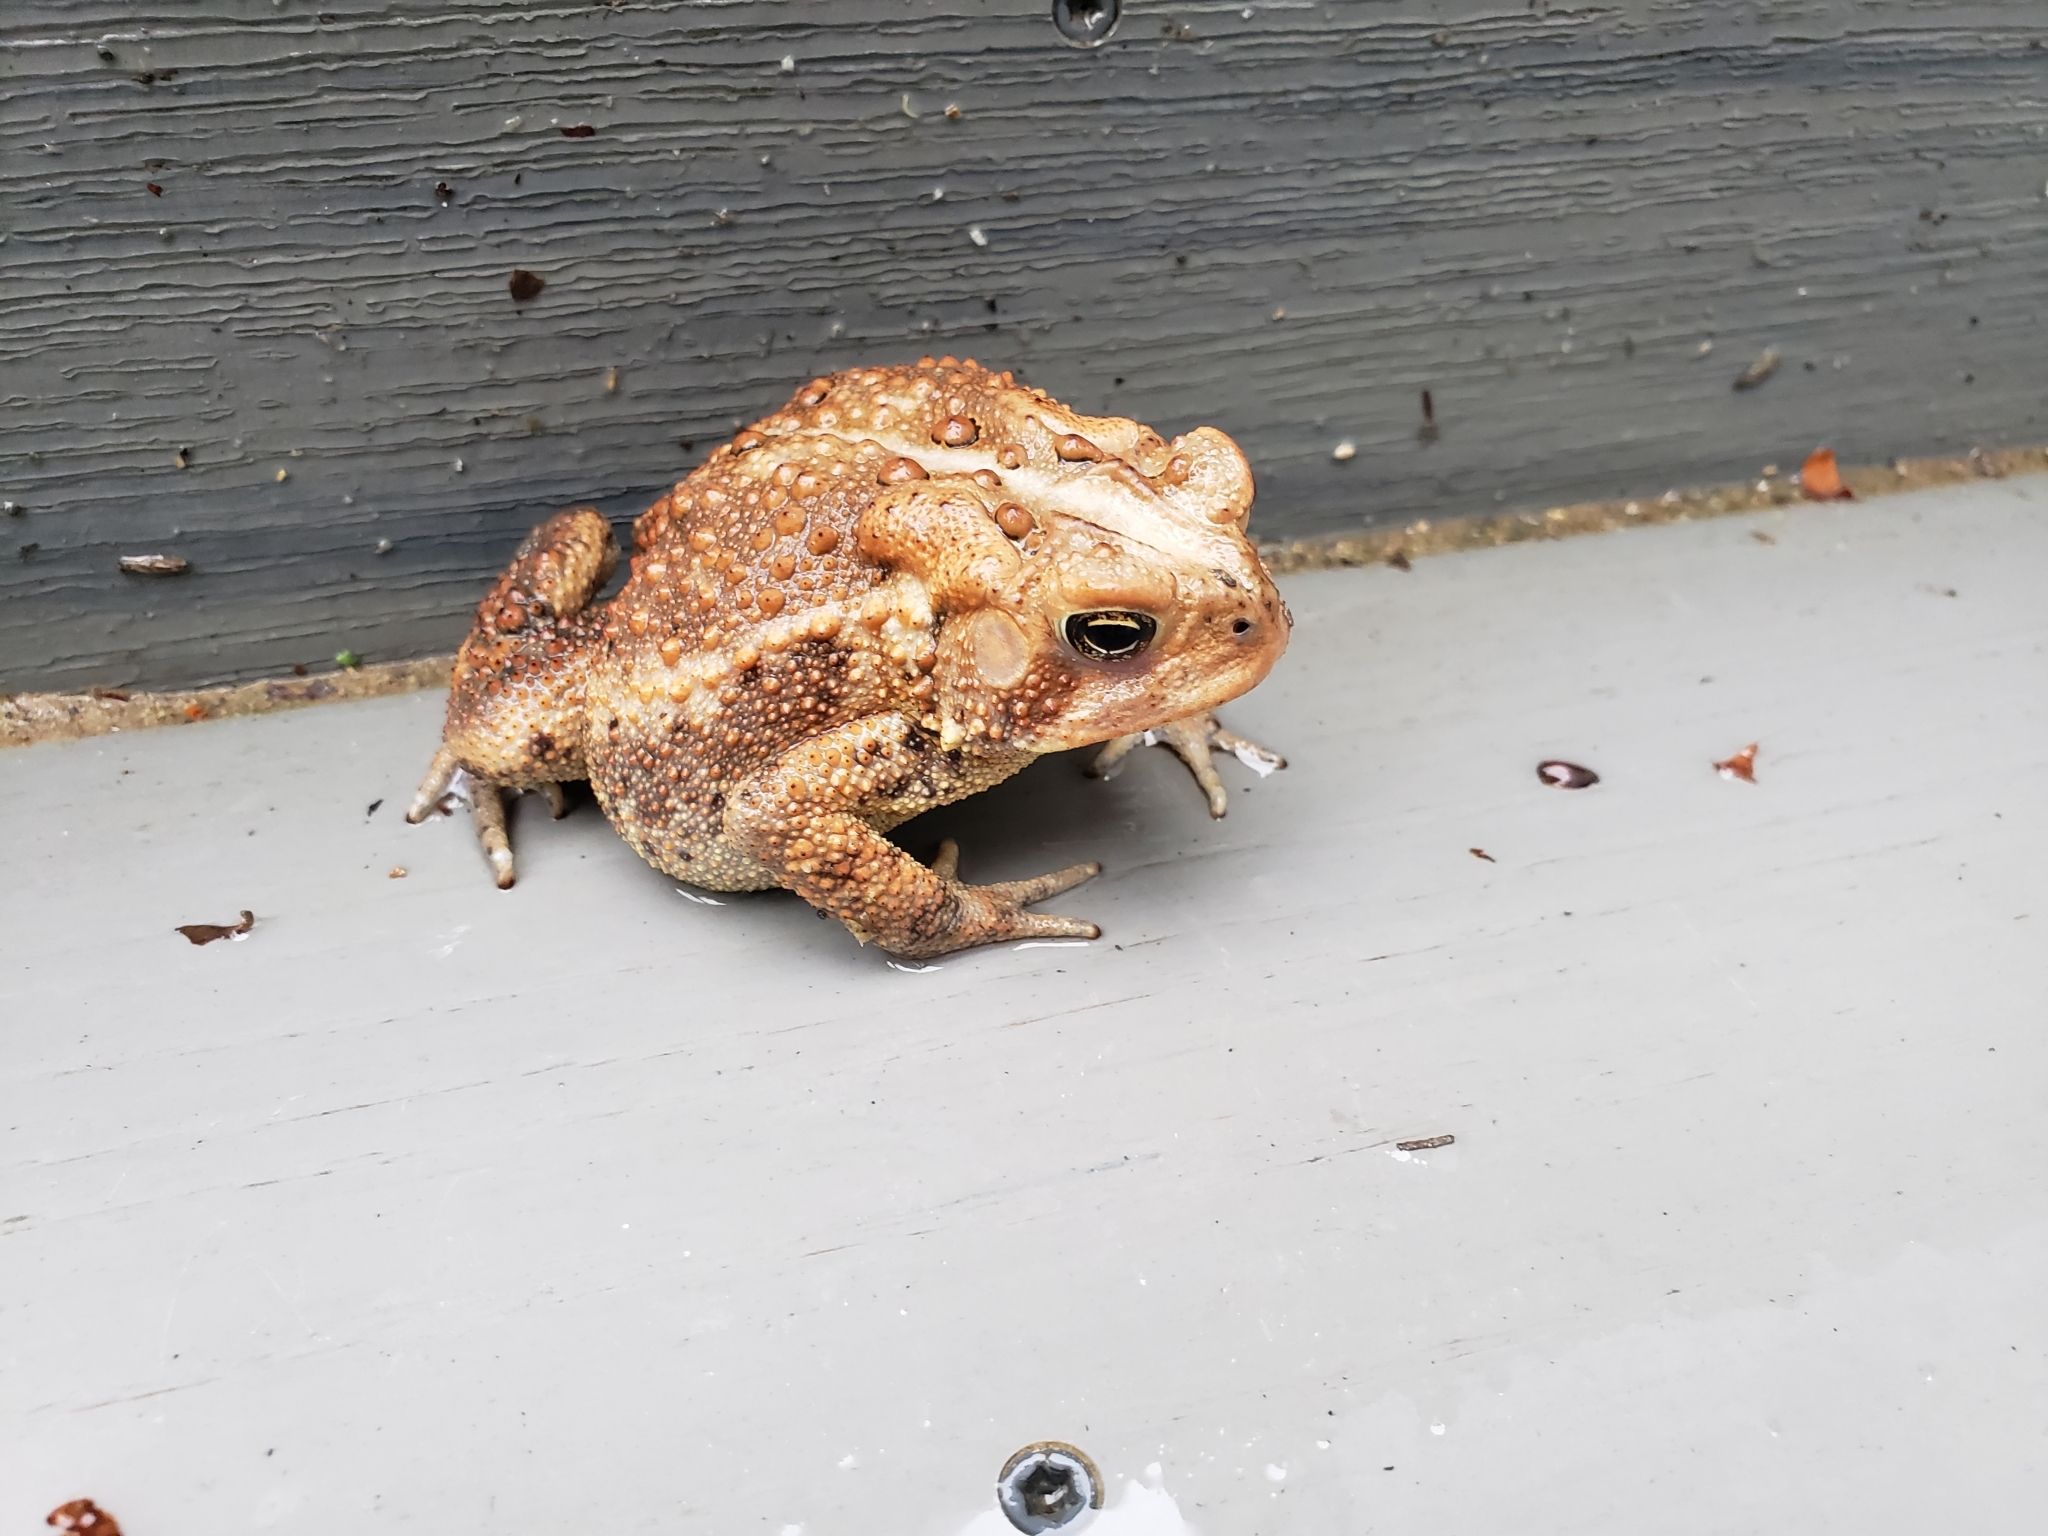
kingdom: Animalia
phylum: Chordata
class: Amphibia
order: Anura
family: Bufonidae
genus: Anaxyrus
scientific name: Anaxyrus americanus
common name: American toad
